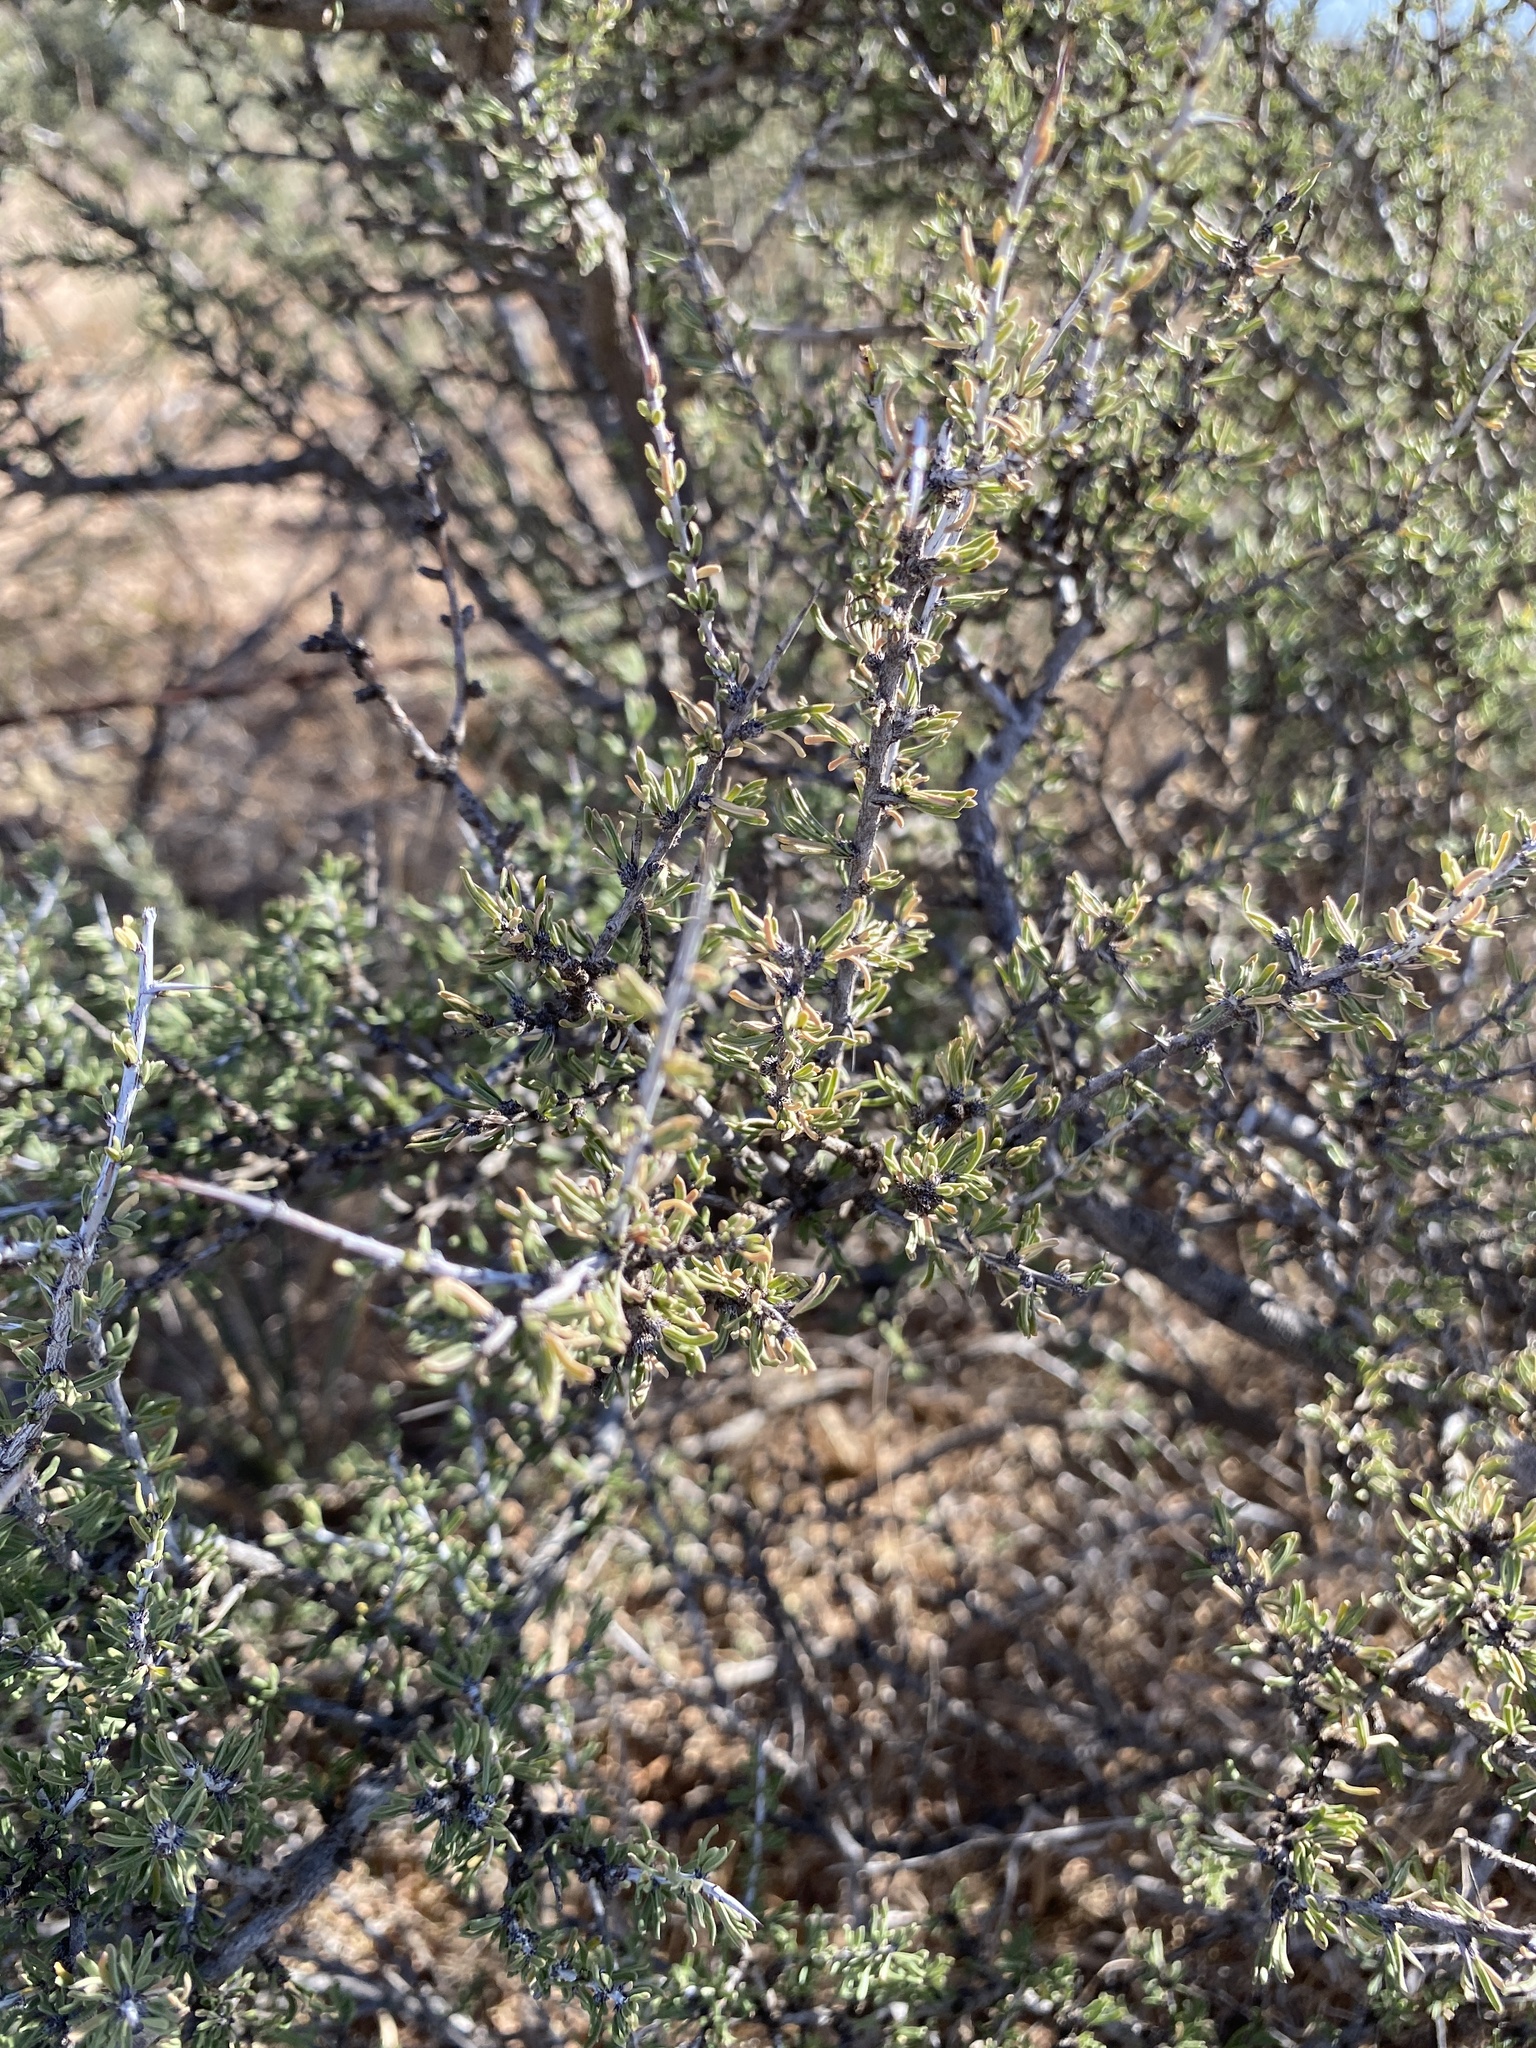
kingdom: Plantae
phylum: Tracheophyta
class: Magnoliopsida
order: Rosales
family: Rhamnaceae
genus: Condalia
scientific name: Condalia ericoides
